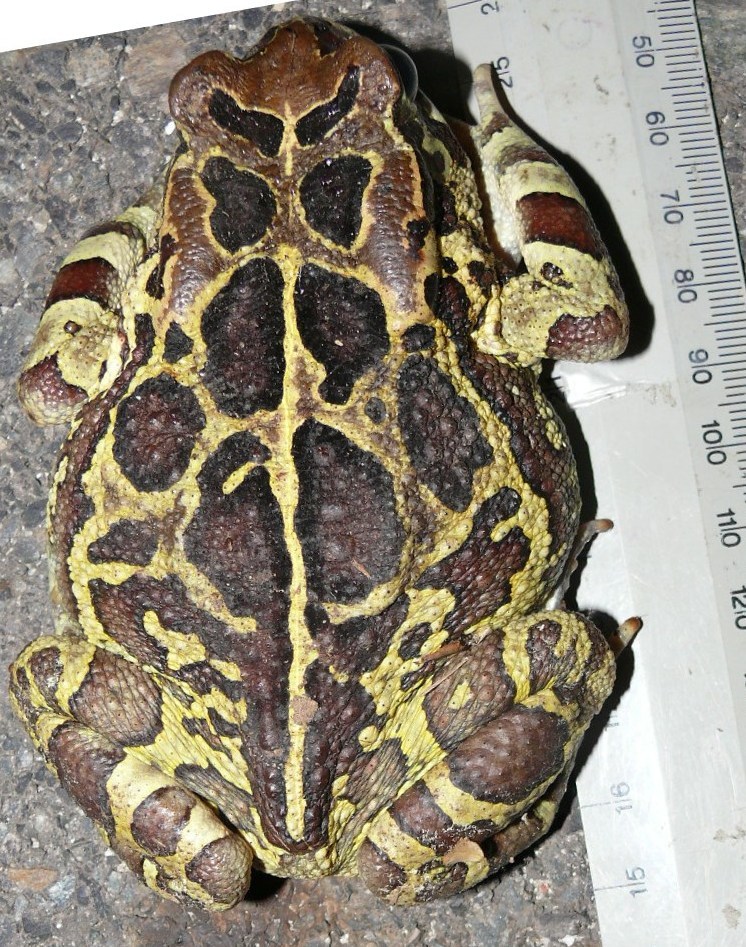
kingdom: Animalia
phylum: Chordata
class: Amphibia
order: Anura
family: Bufonidae
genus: Sclerophrys
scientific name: Sclerophrys pantherina
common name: Panther toad
